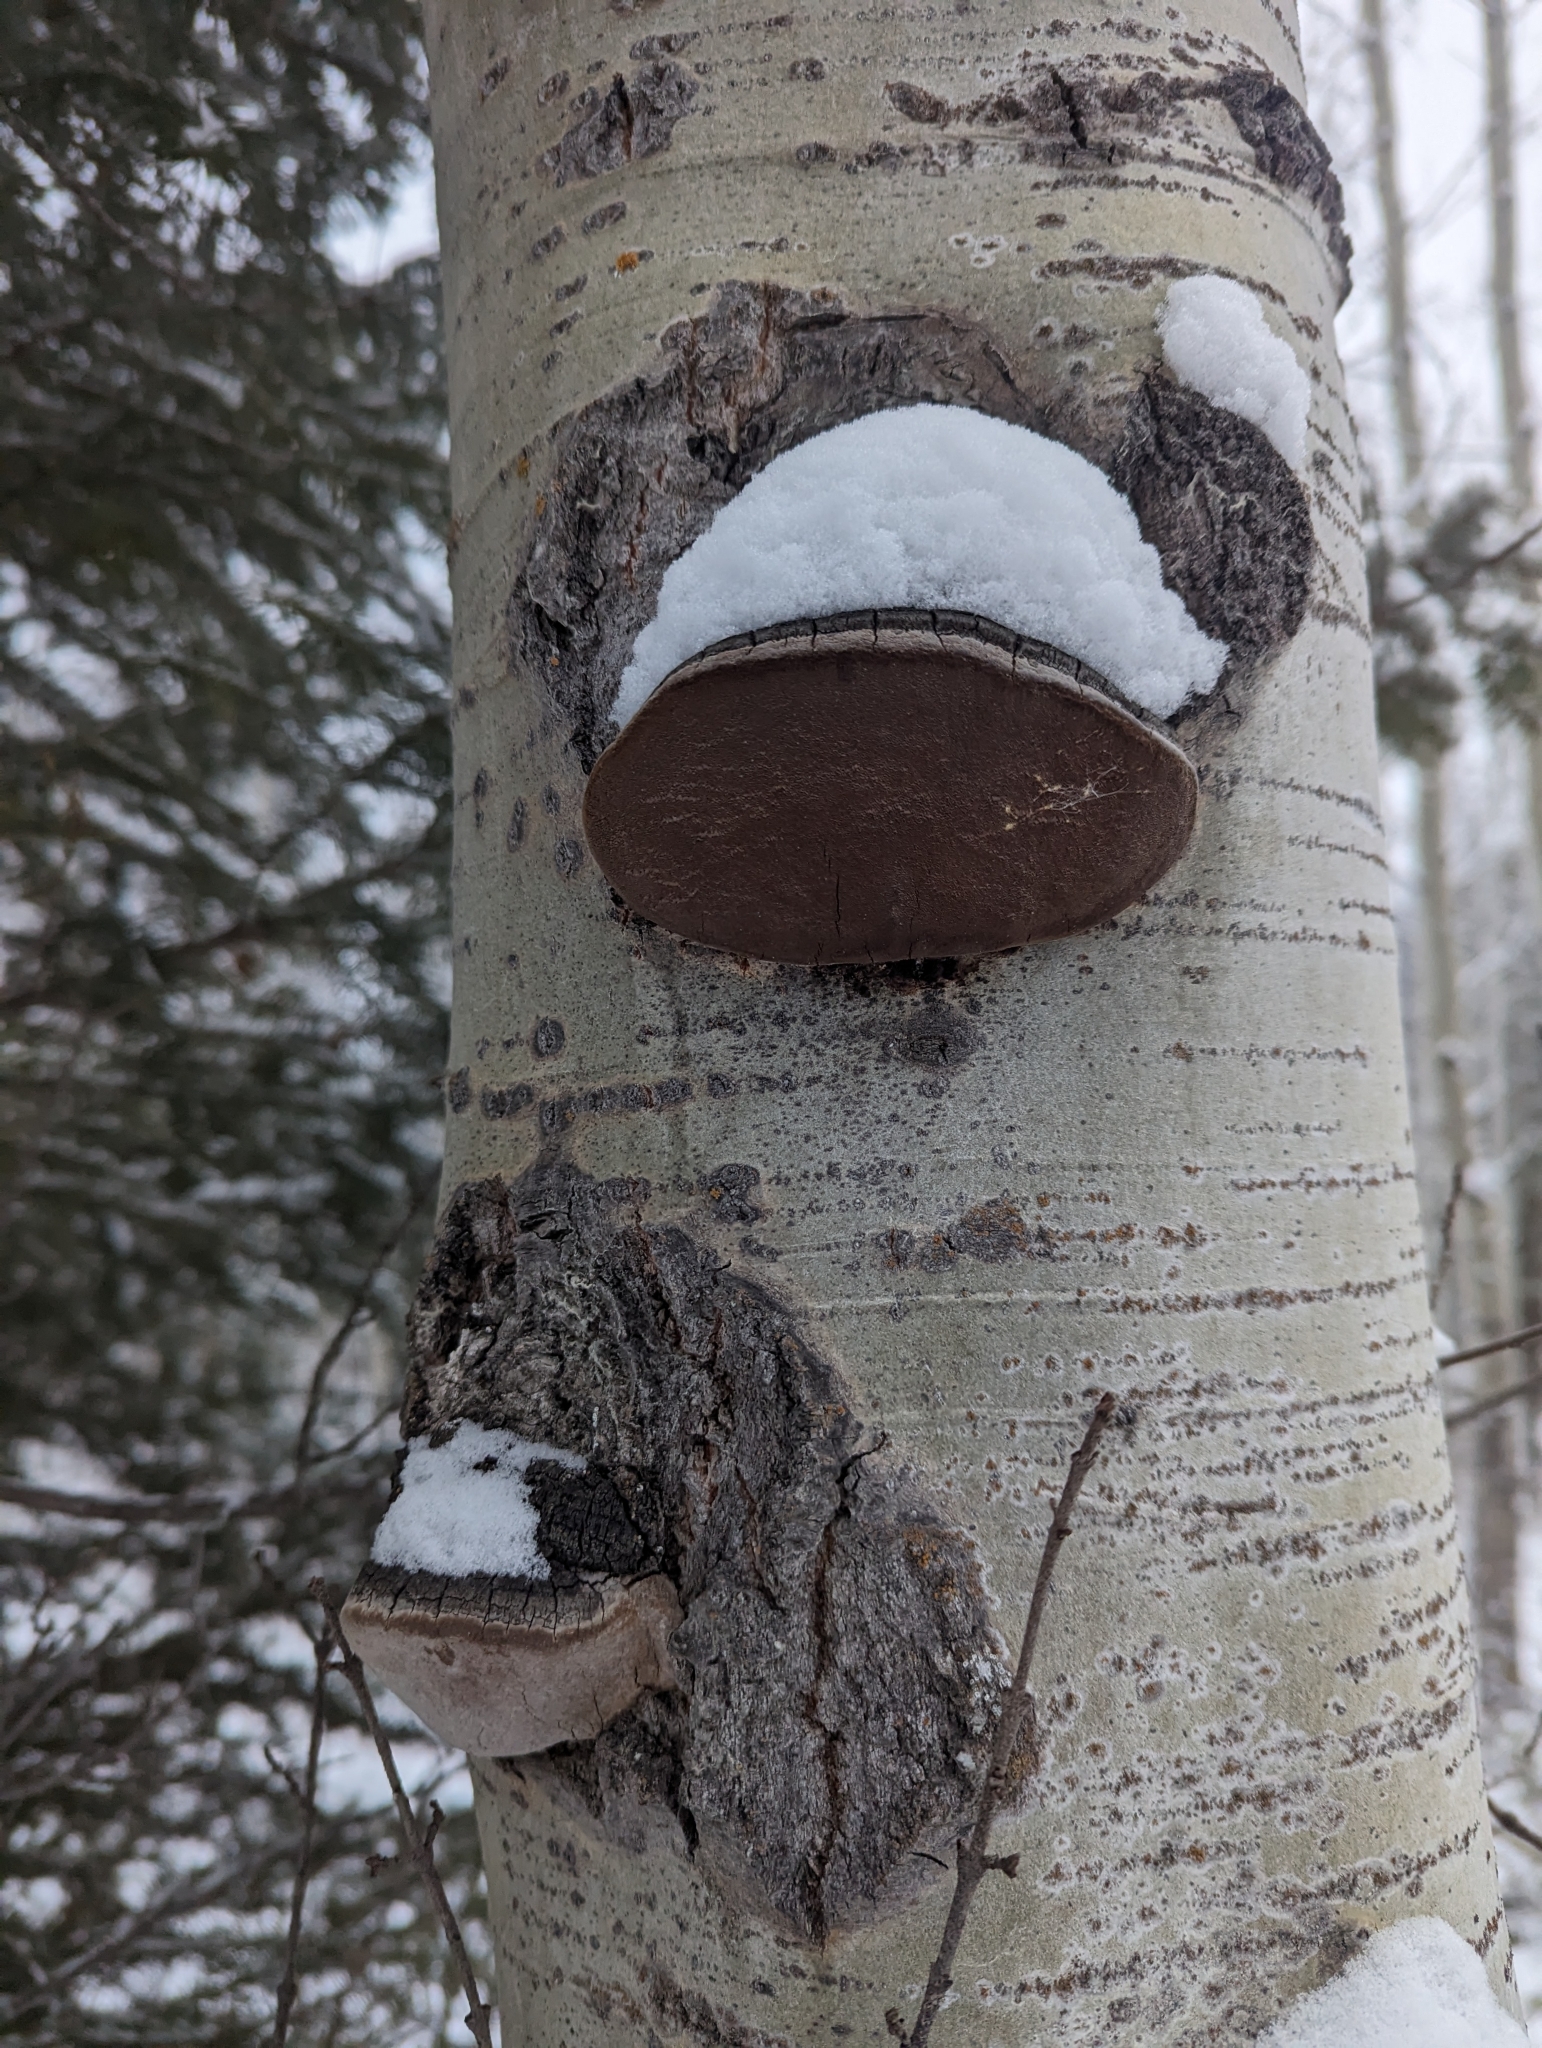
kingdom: Fungi
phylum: Basidiomycota
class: Agaricomycetes
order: Hymenochaetales
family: Hymenochaetaceae
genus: Phellinus
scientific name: Phellinus tremulae
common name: Aspen bracket
